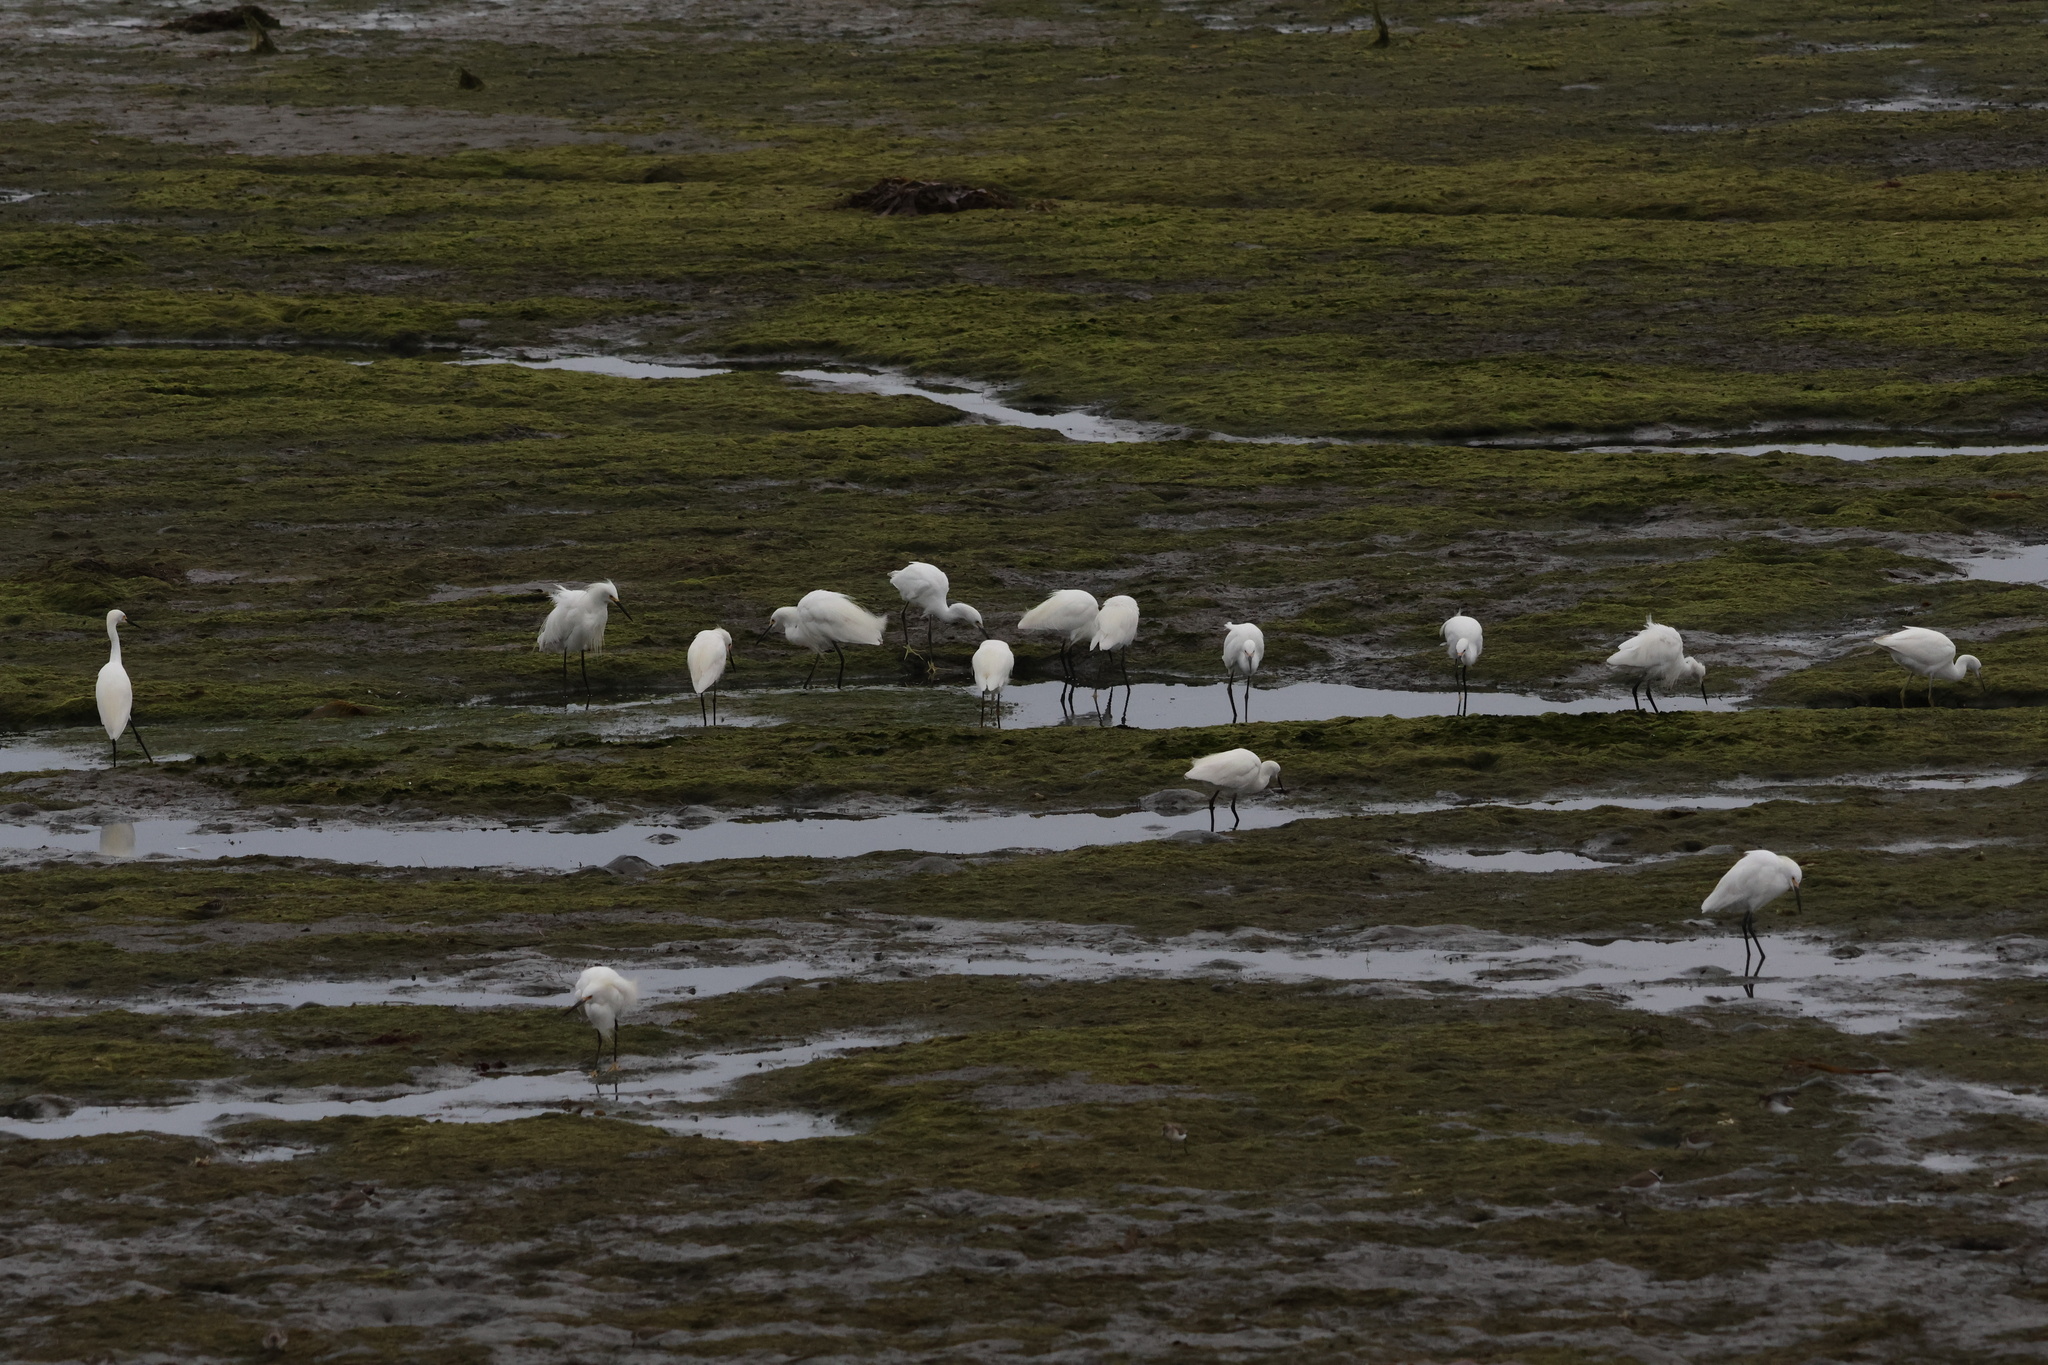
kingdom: Animalia
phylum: Chordata
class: Aves
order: Pelecaniformes
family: Ardeidae
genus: Egretta
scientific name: Egretta thula
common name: Snowy egret
